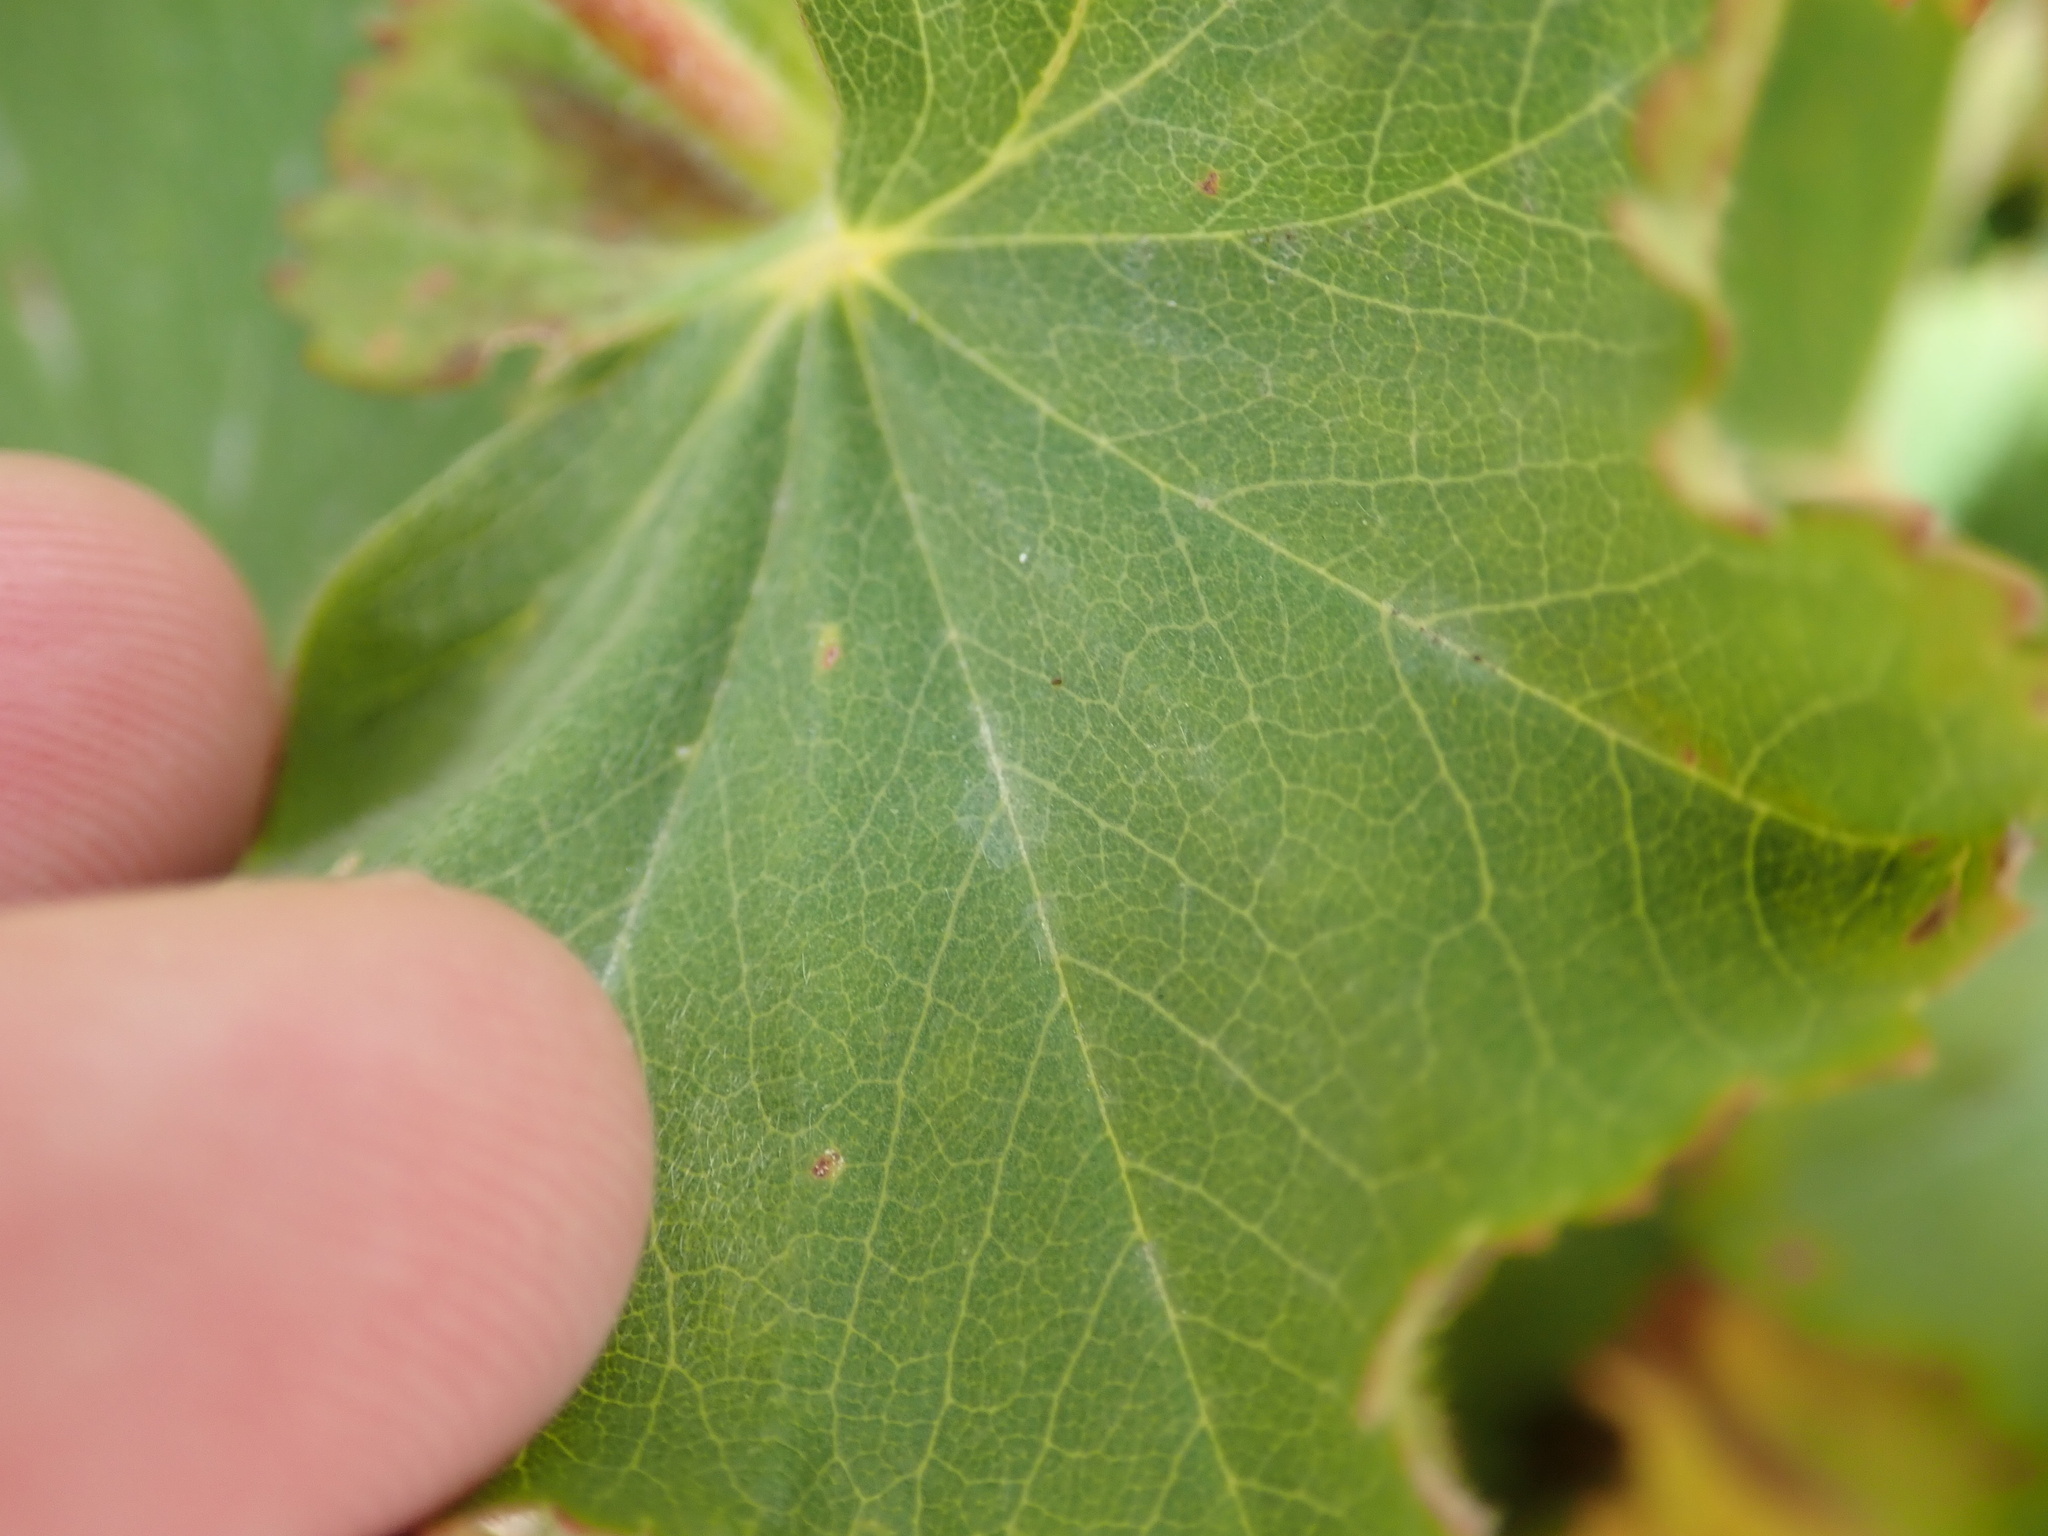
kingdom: Plantae
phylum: Tracheophyta
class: Magnoliopsida
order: Rosales
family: Rosaceae
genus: Alchemilla
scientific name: Alchemilla mollis
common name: Lady's-mantle
